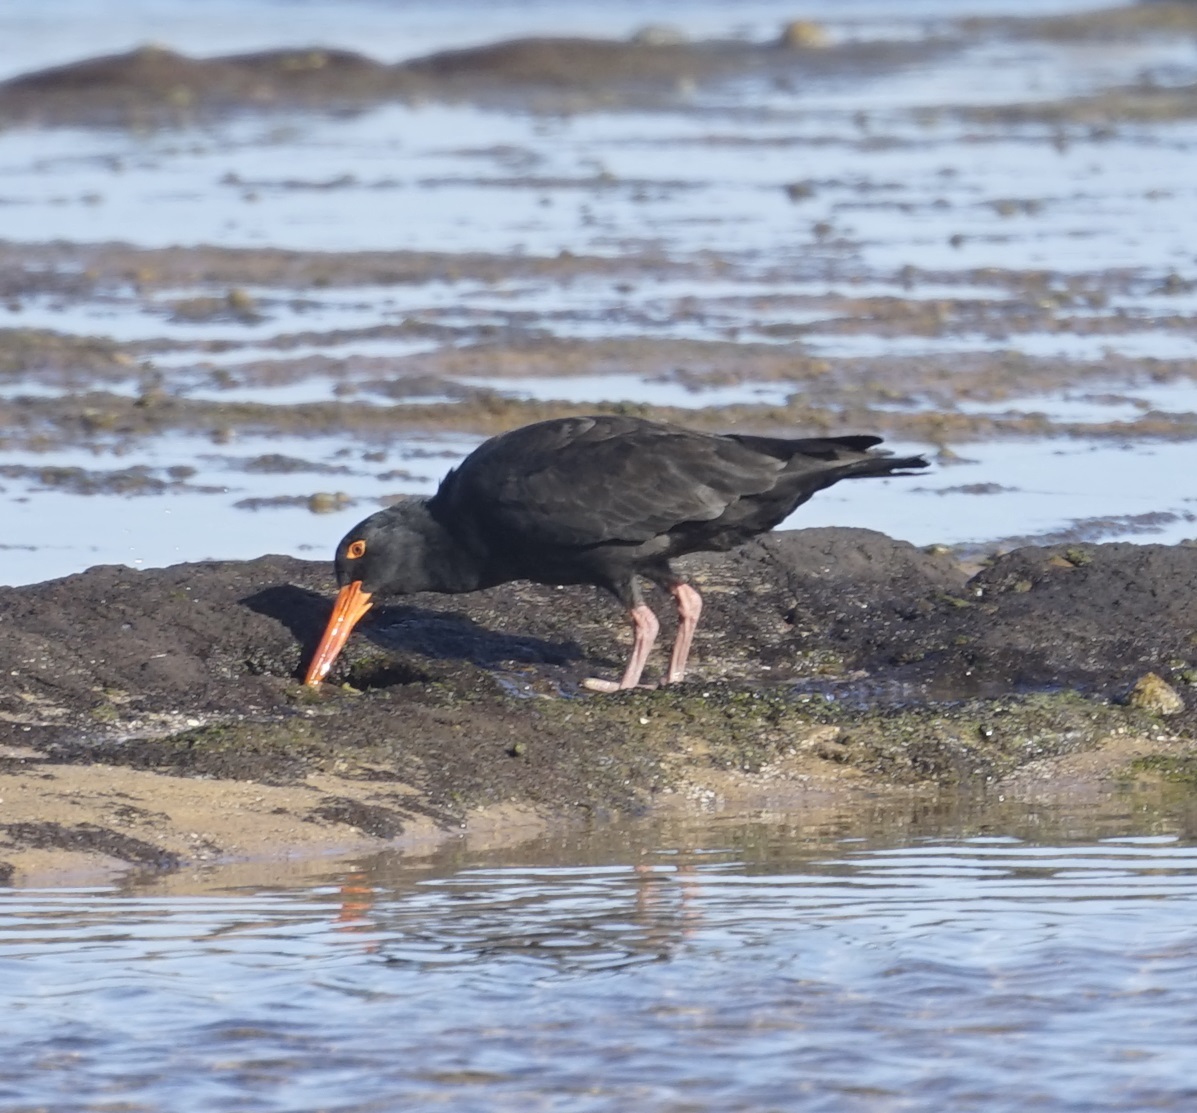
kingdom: Animalia
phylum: Chordata
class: Aves
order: Charadriiformes
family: Haematopodidae
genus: Haematopus
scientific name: Haematopus fuliginosus
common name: Sooty oystercatcher
